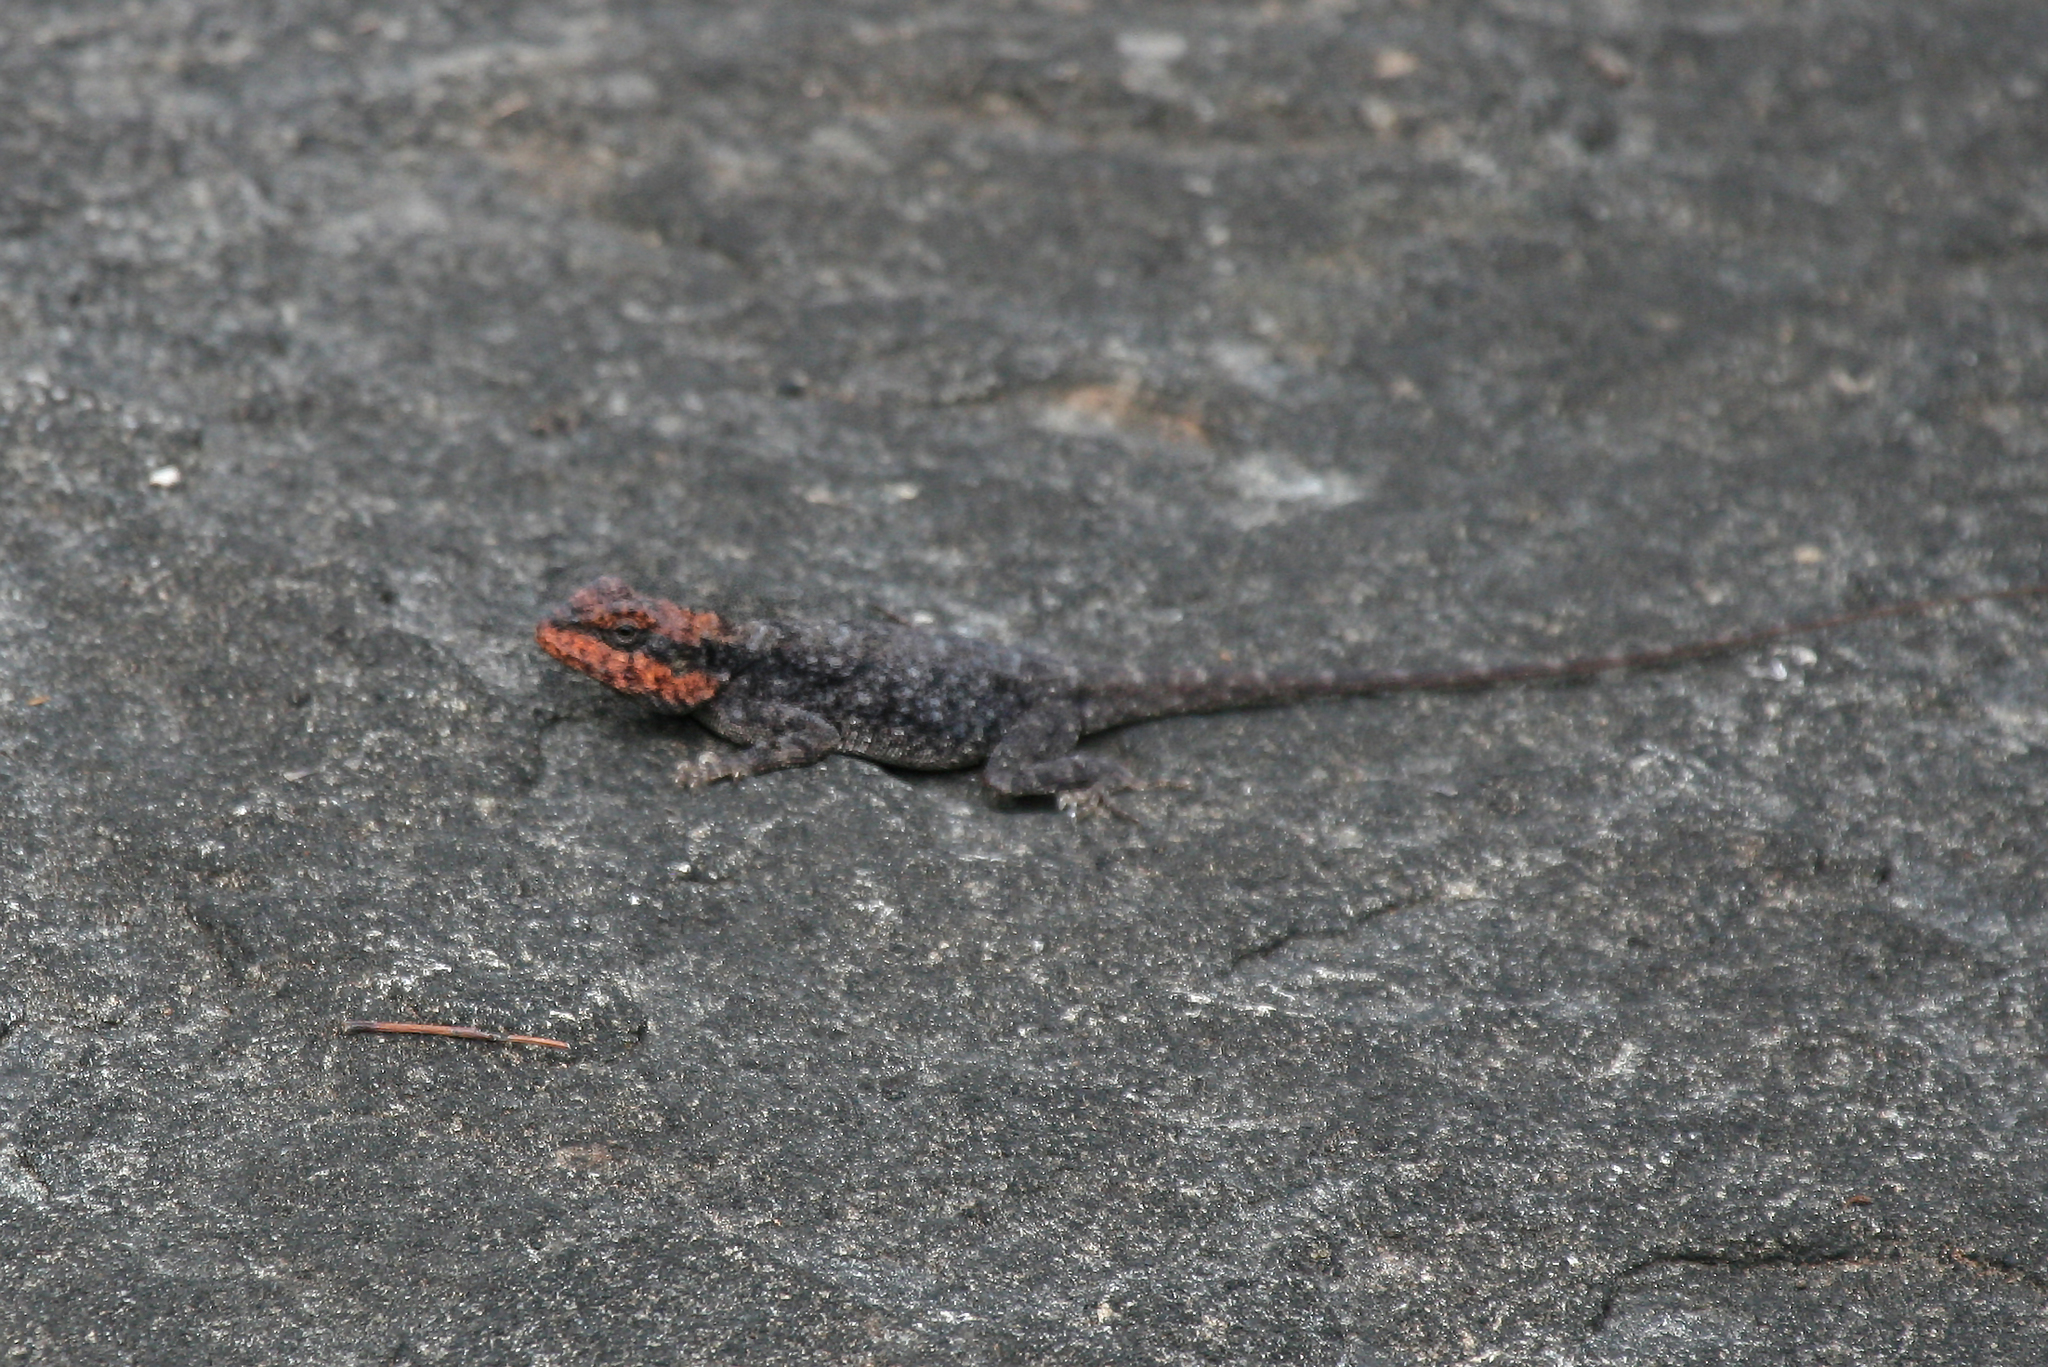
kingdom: Animalia
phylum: Chordata
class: Squamata
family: Agamidae
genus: Psammophilus
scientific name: Psammophilus dorsalis
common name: South indian rock agama
